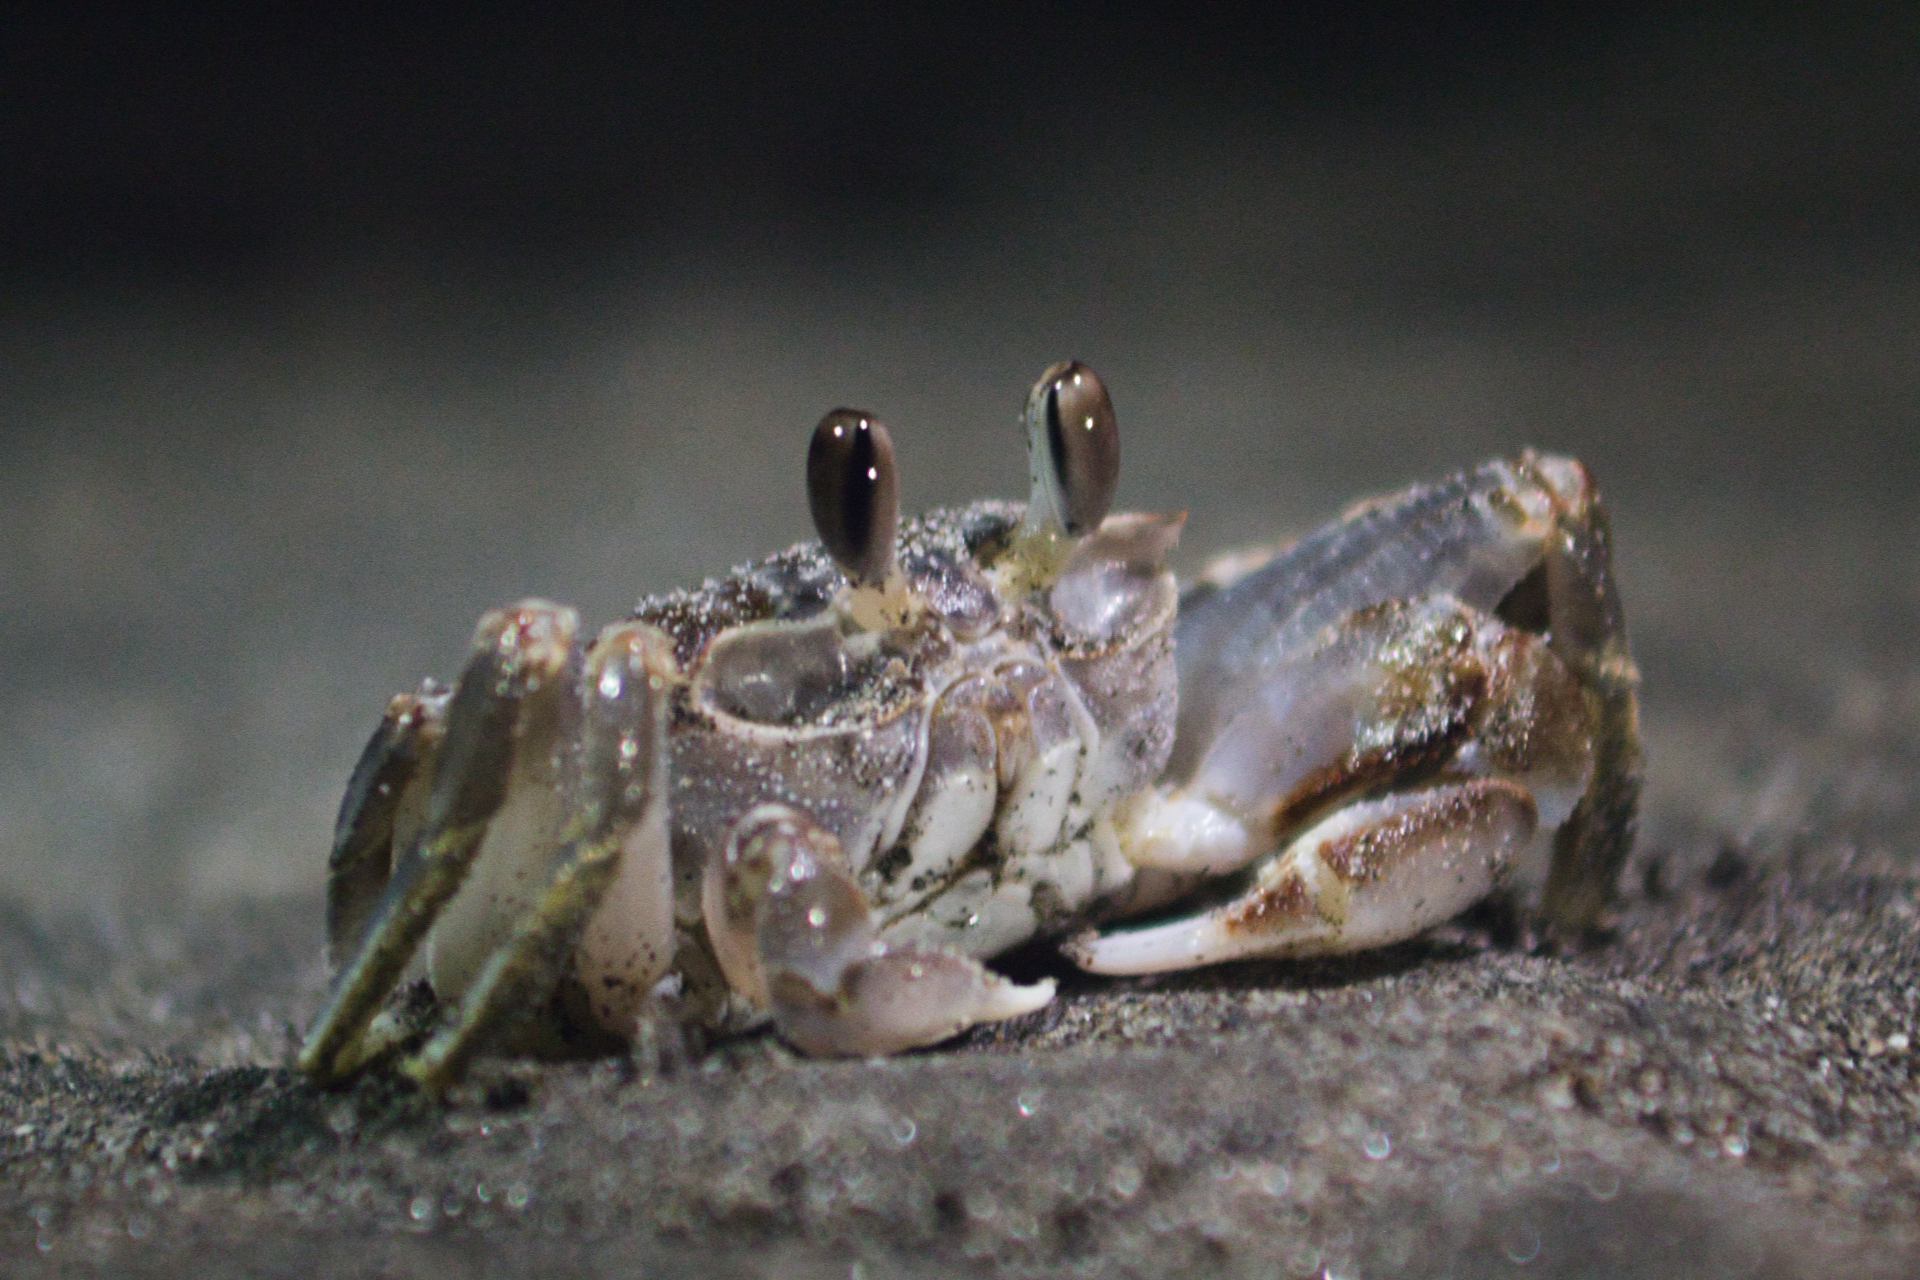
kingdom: Animalia
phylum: Arthropoda
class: Malacostraca
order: Decapoda
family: Ocypodidae
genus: Ocypode
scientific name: Ocypode occidentalis
